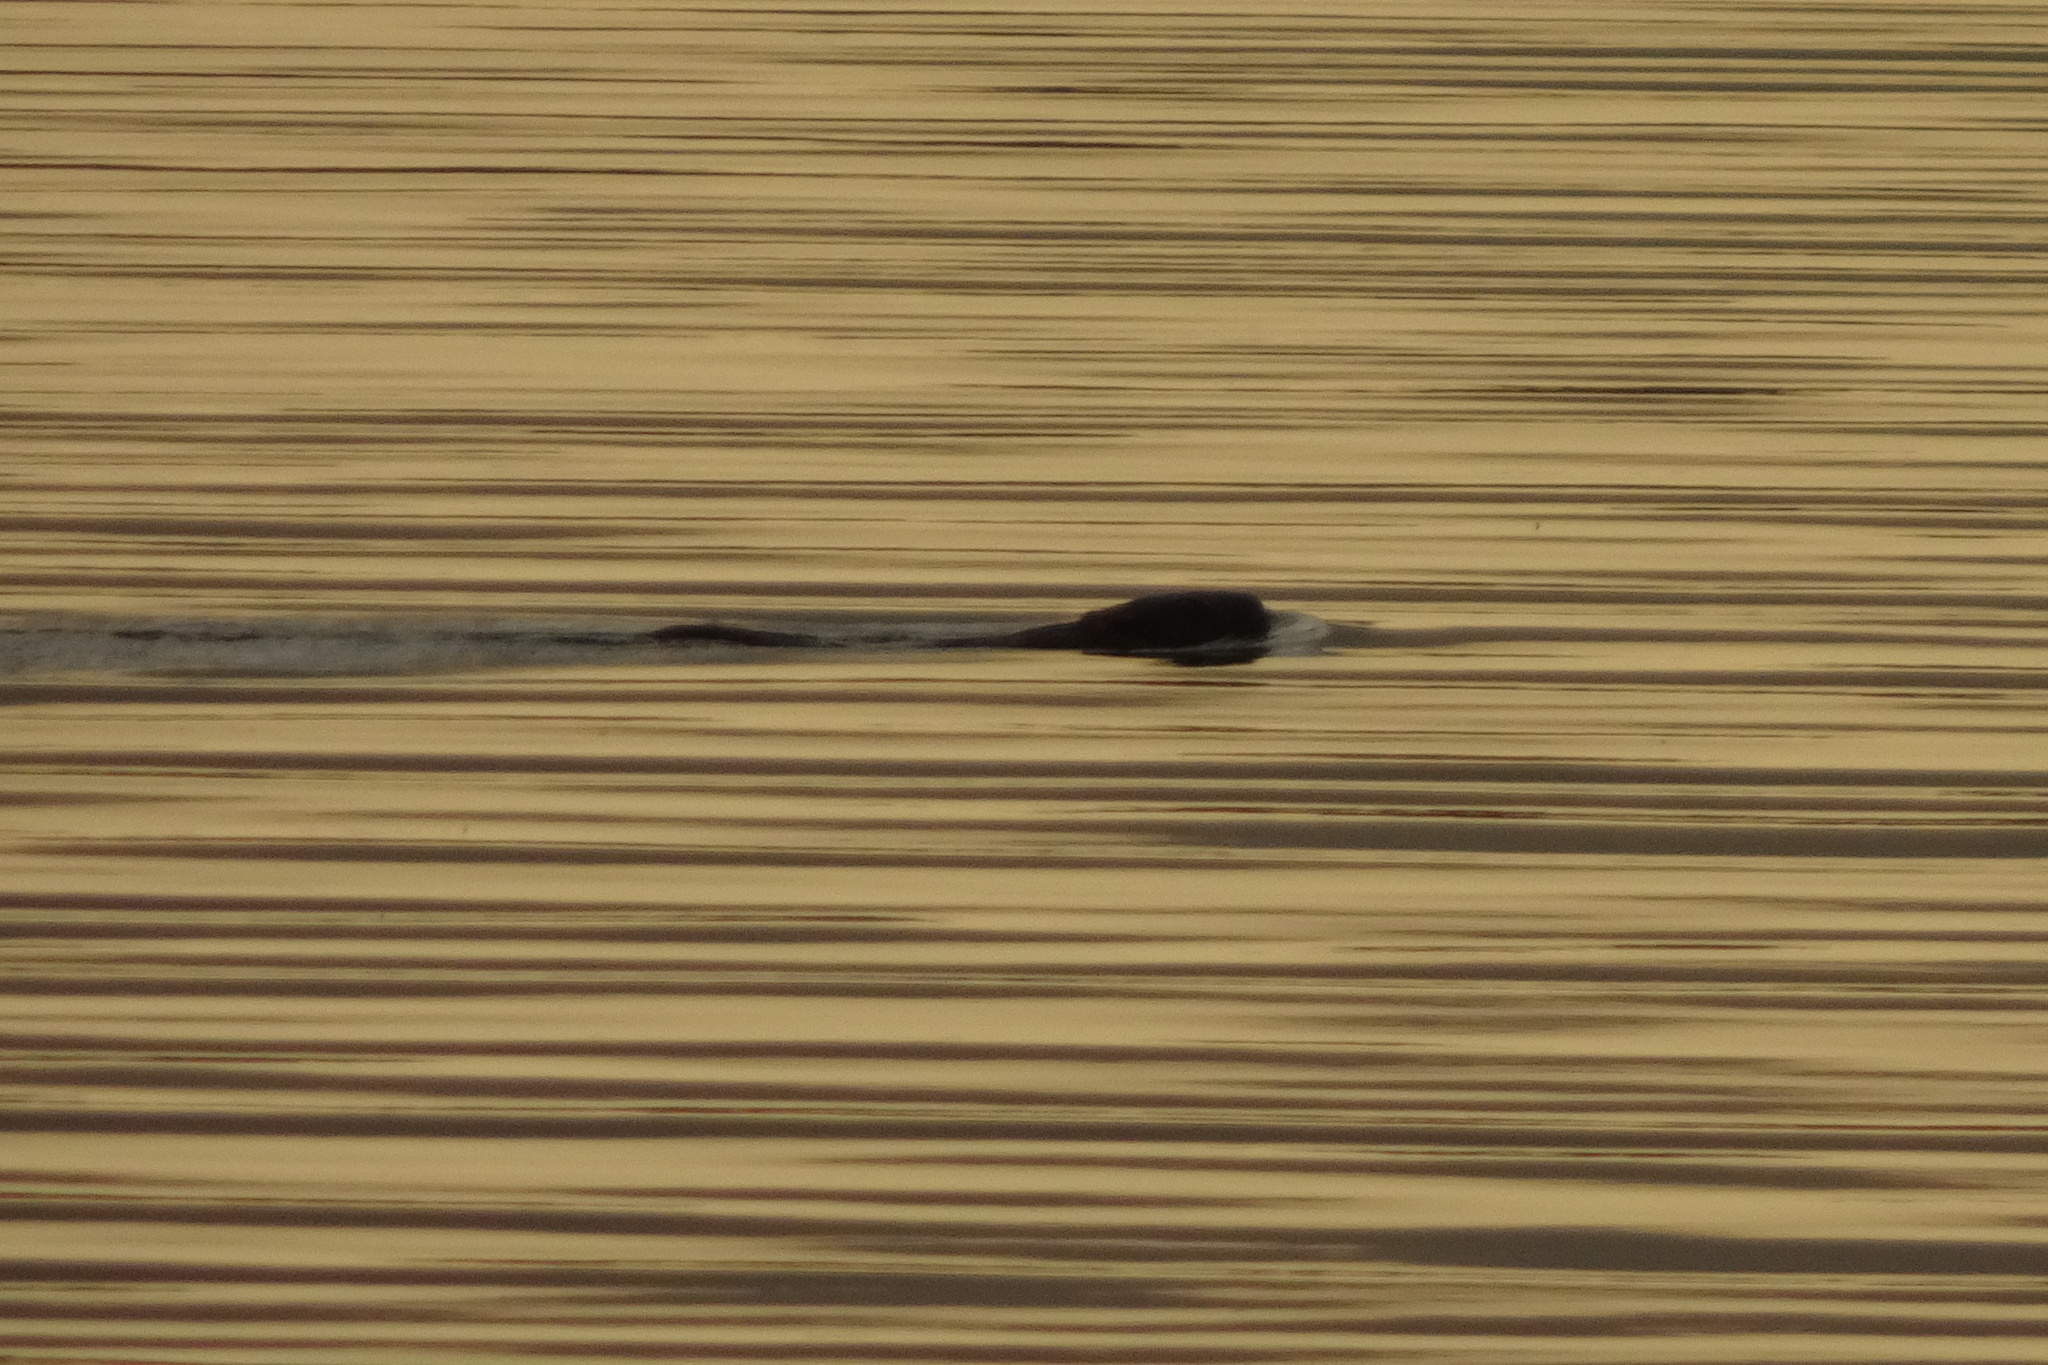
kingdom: Animalia
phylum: Chordata
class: Mammalia
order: Carnivora
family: Mustelidae
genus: Lutra
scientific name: Lutra lutra
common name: European otter
